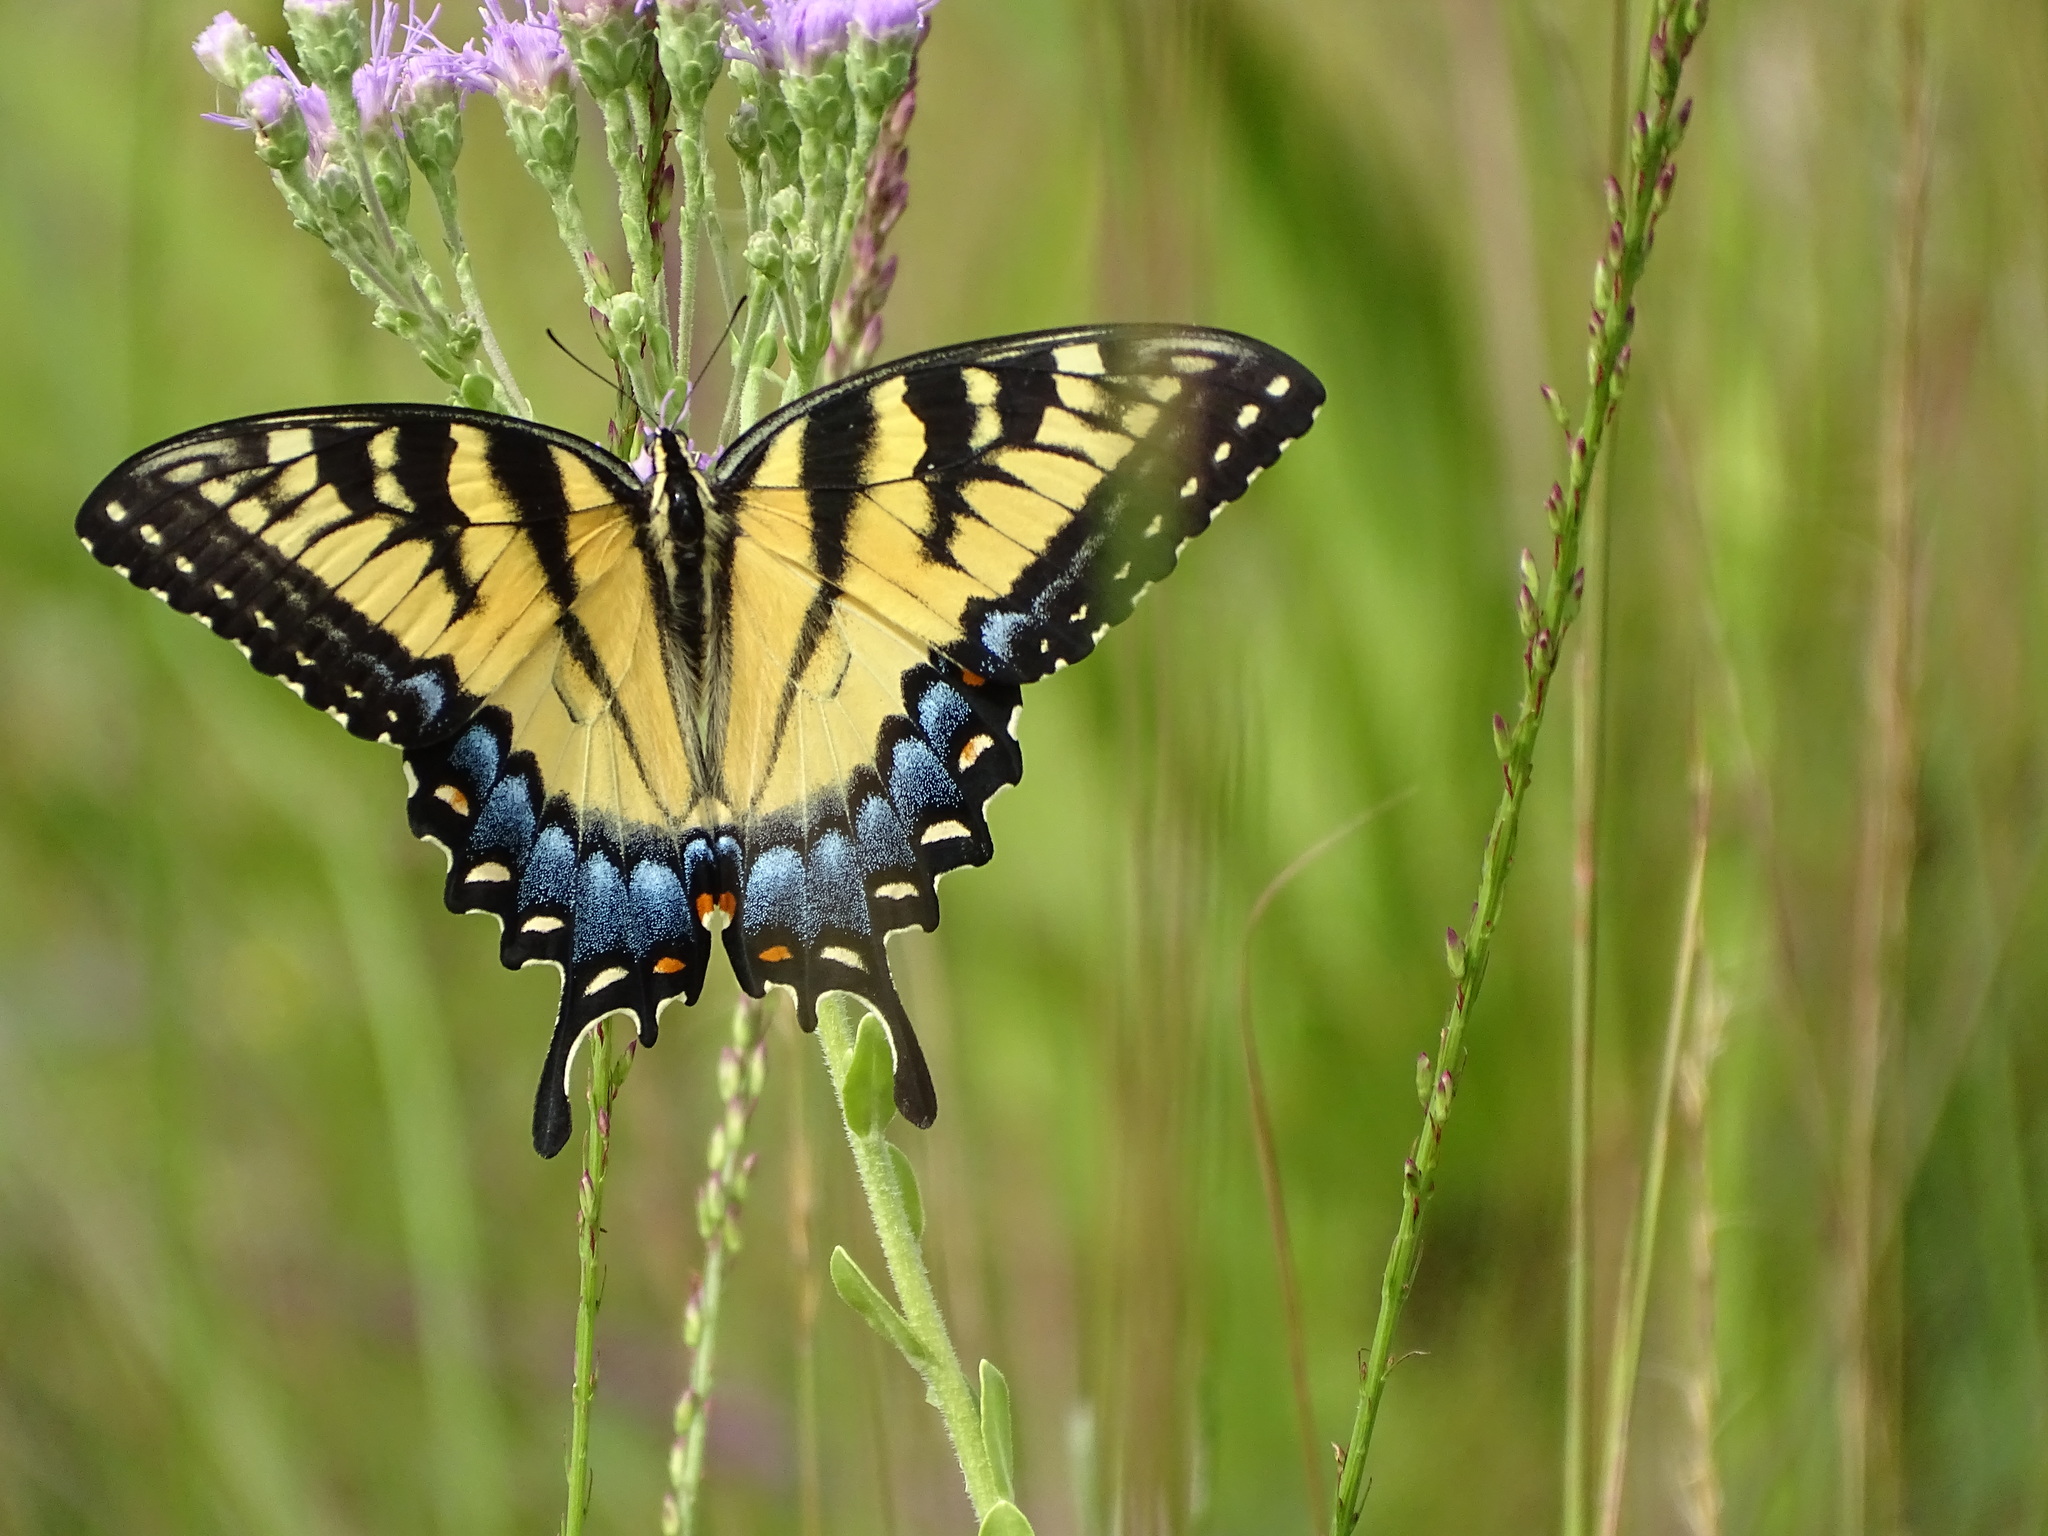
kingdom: Animalia
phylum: Arthropoda
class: Insecta
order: Lepidoptera
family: Papilionidae
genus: Papilio
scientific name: Papilio glaucus
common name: Tiger swallowtail
